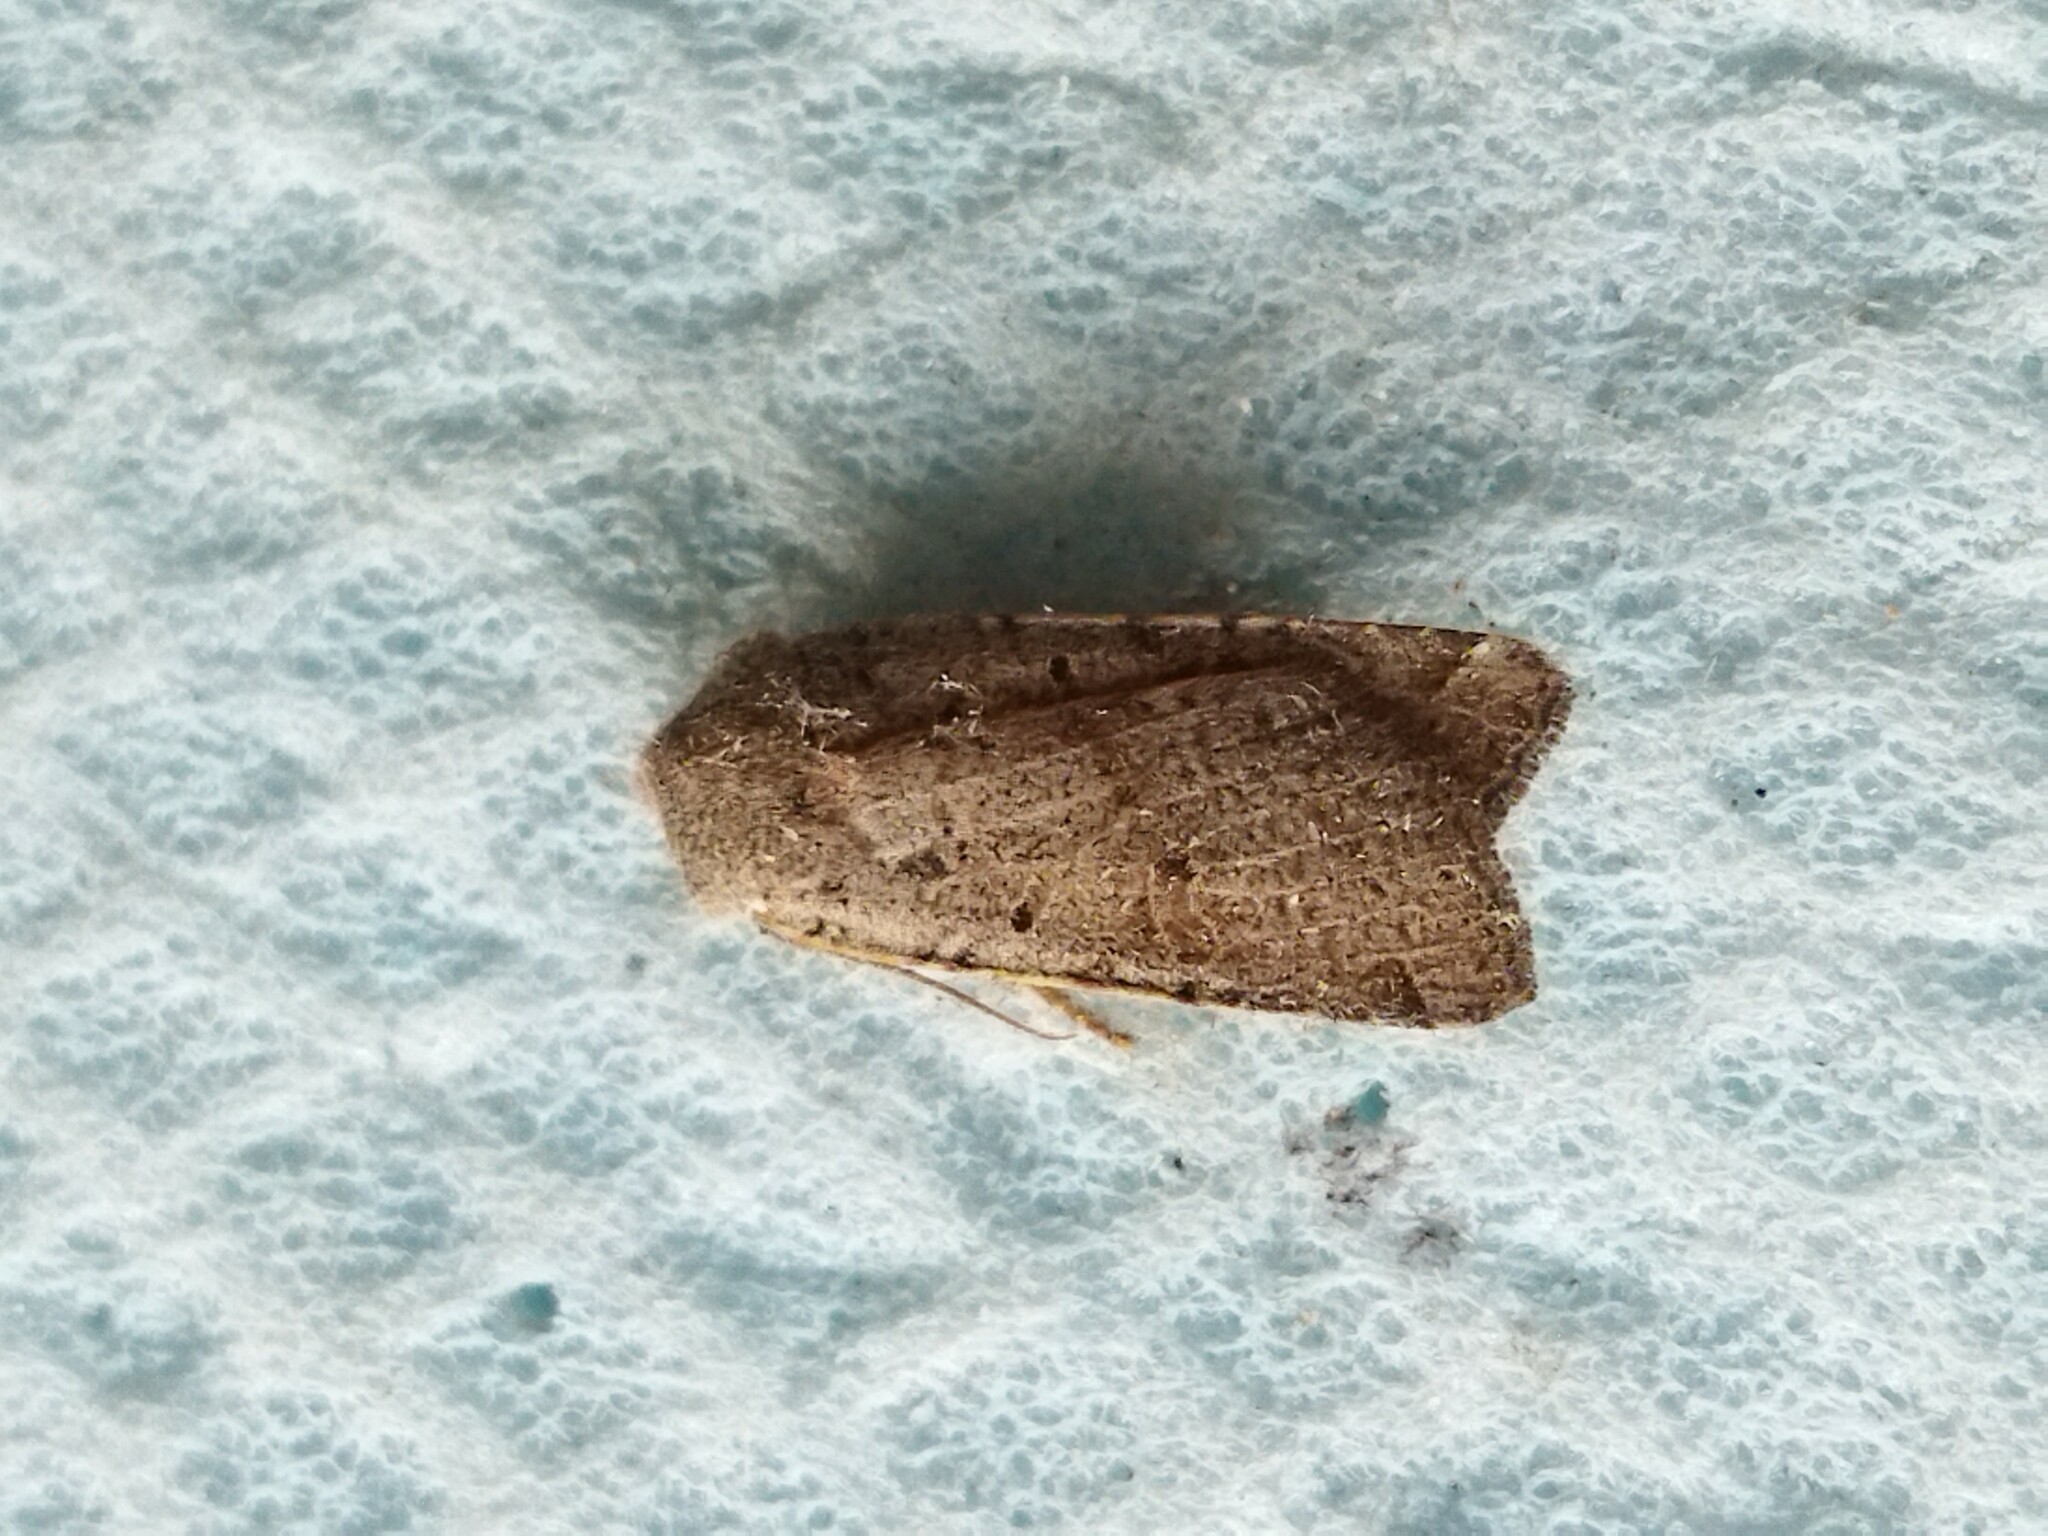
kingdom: Animalia
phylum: Arthropoda
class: Insecta
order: Lepidoptera
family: Noctuidae
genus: Agrochola
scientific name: Agrochola lychnidis
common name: Beaded chestnut
